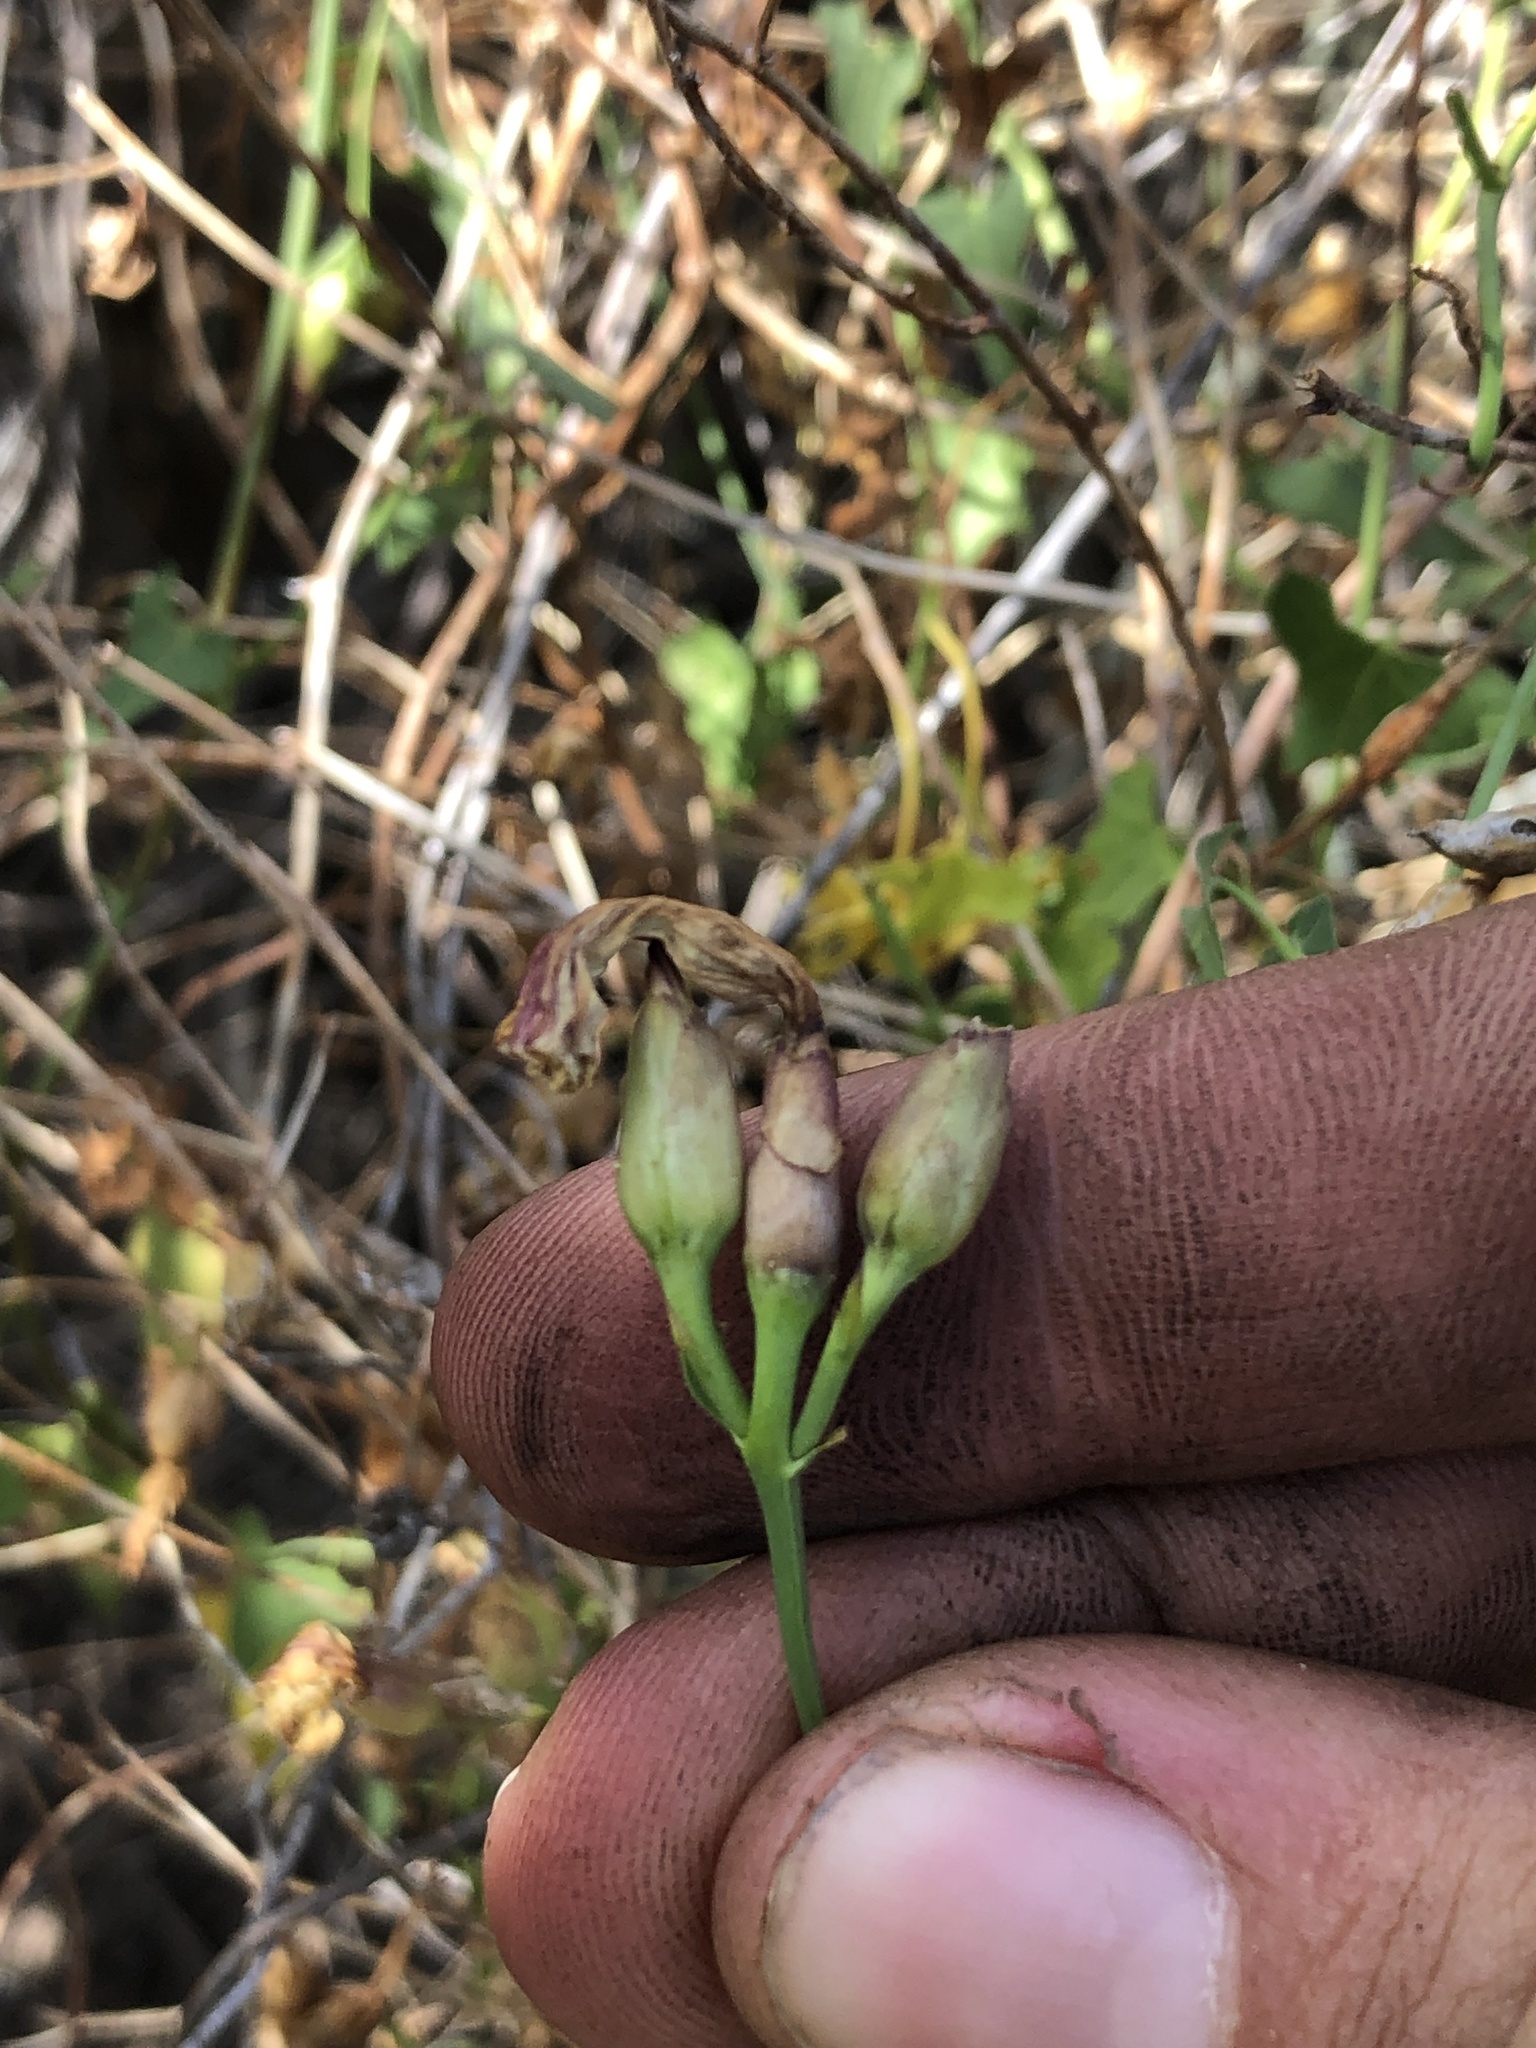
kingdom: Plantae
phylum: Tracheophyta
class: Magnoliopsida
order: Solanales
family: Convolvulaceae
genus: Calystegia
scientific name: Calystegia purpurata
